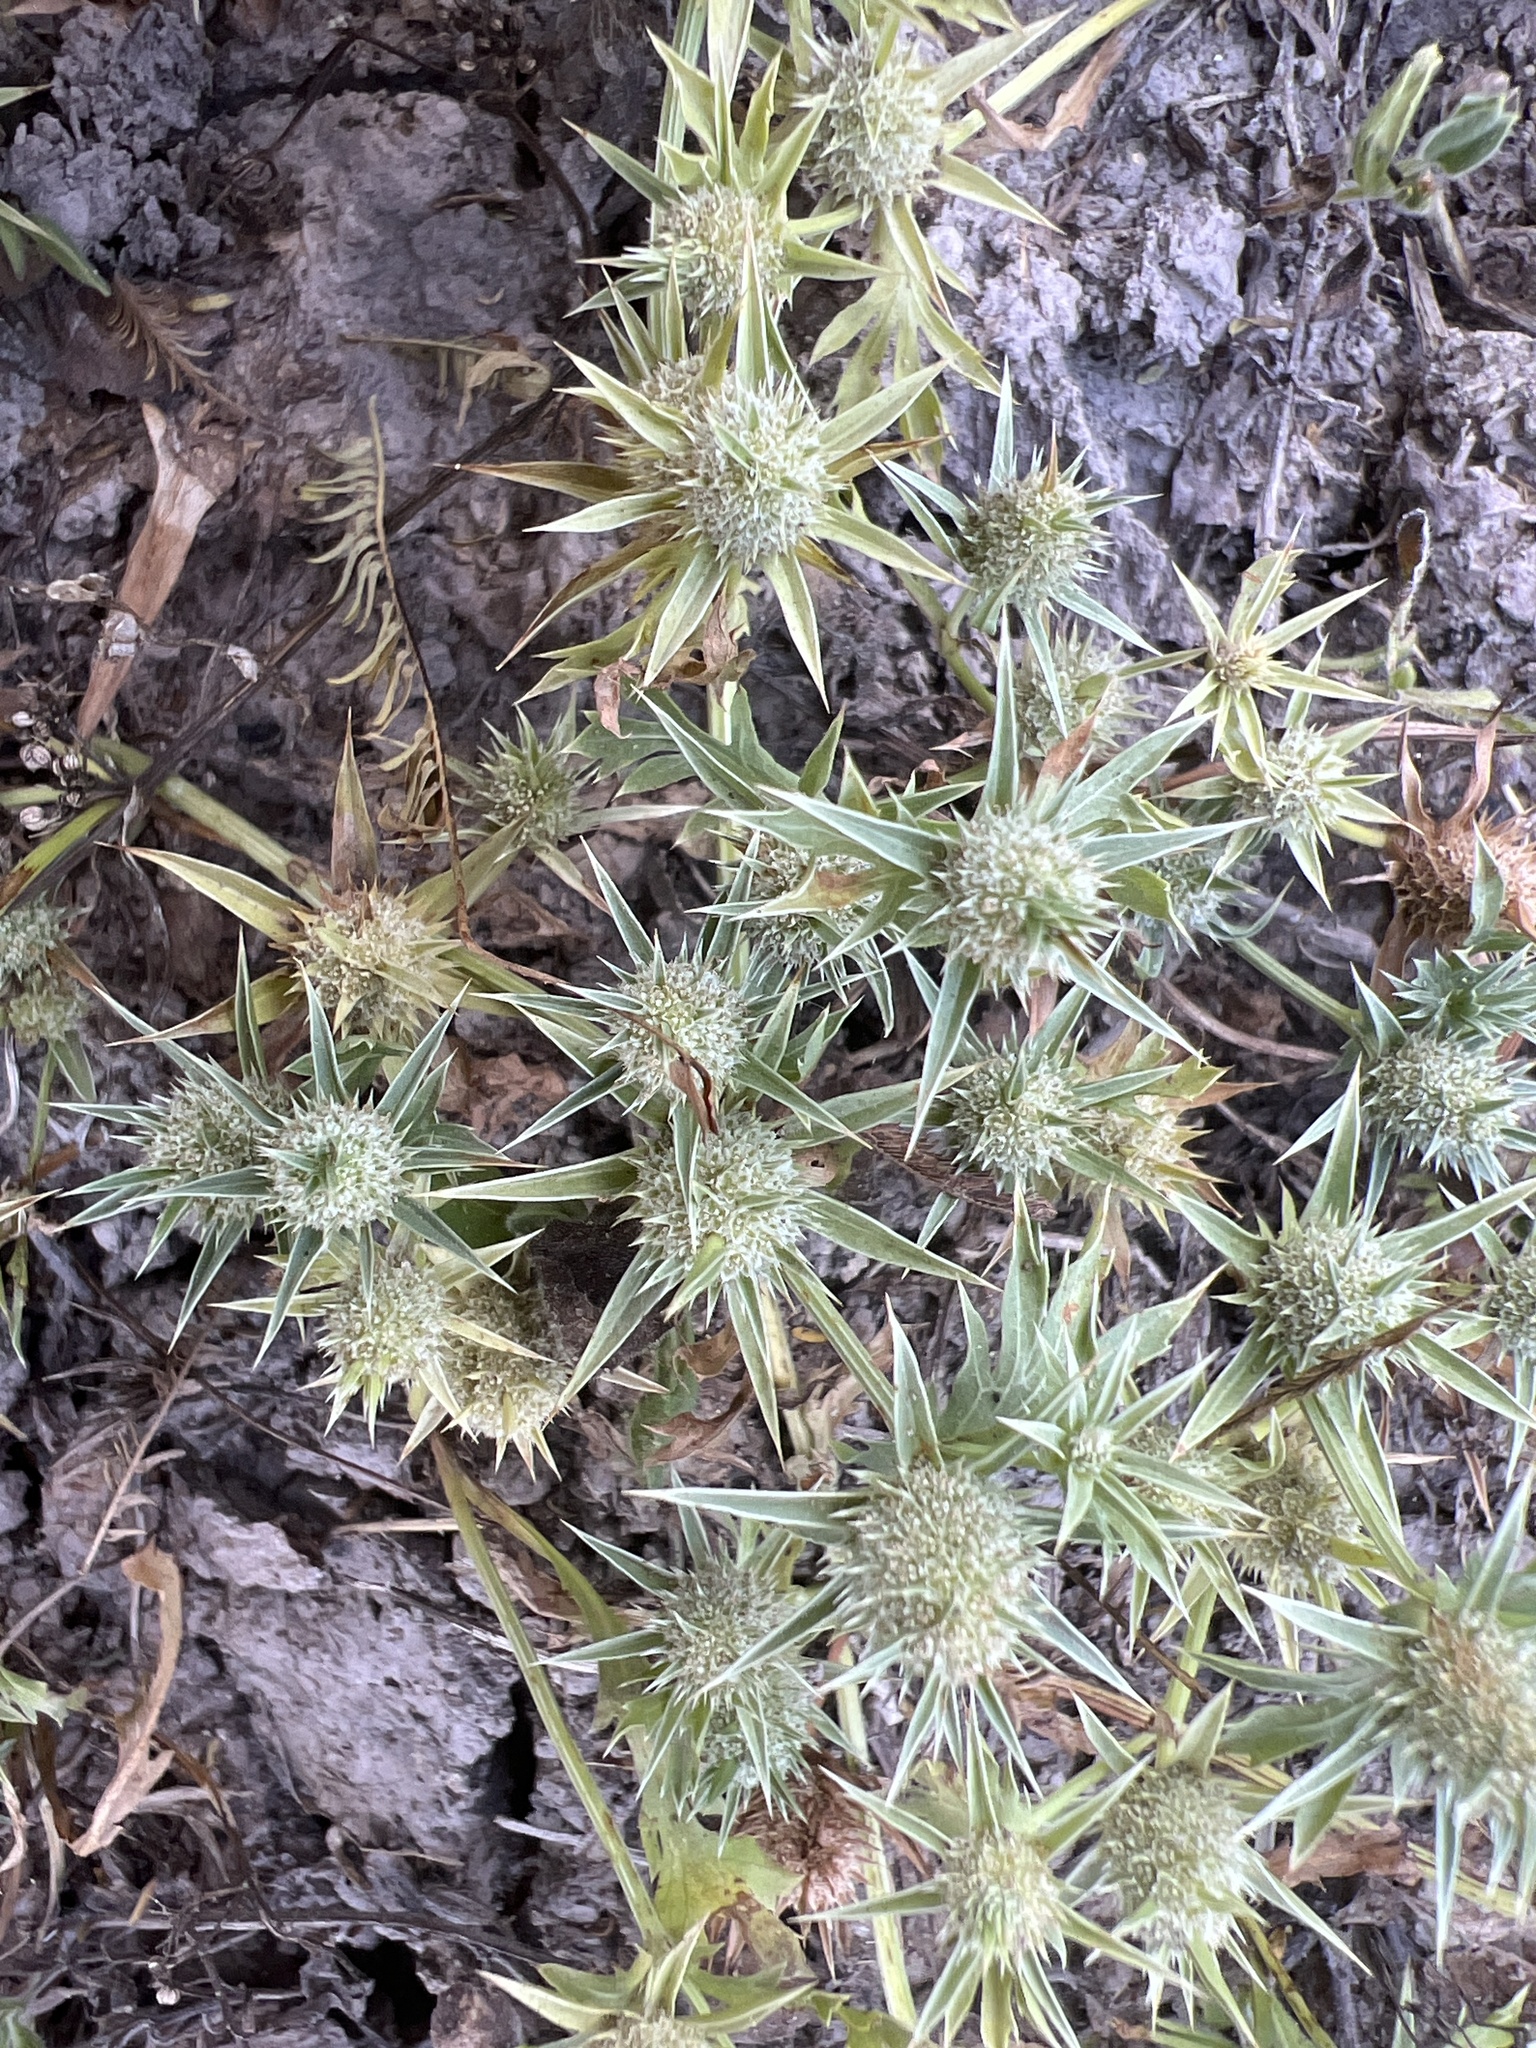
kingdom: Plantae
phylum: Tracheophyta
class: Magnoliopsida
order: Apiales
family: Apiaceae
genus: Eryngium
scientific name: Eryngium nasturtiifolium
